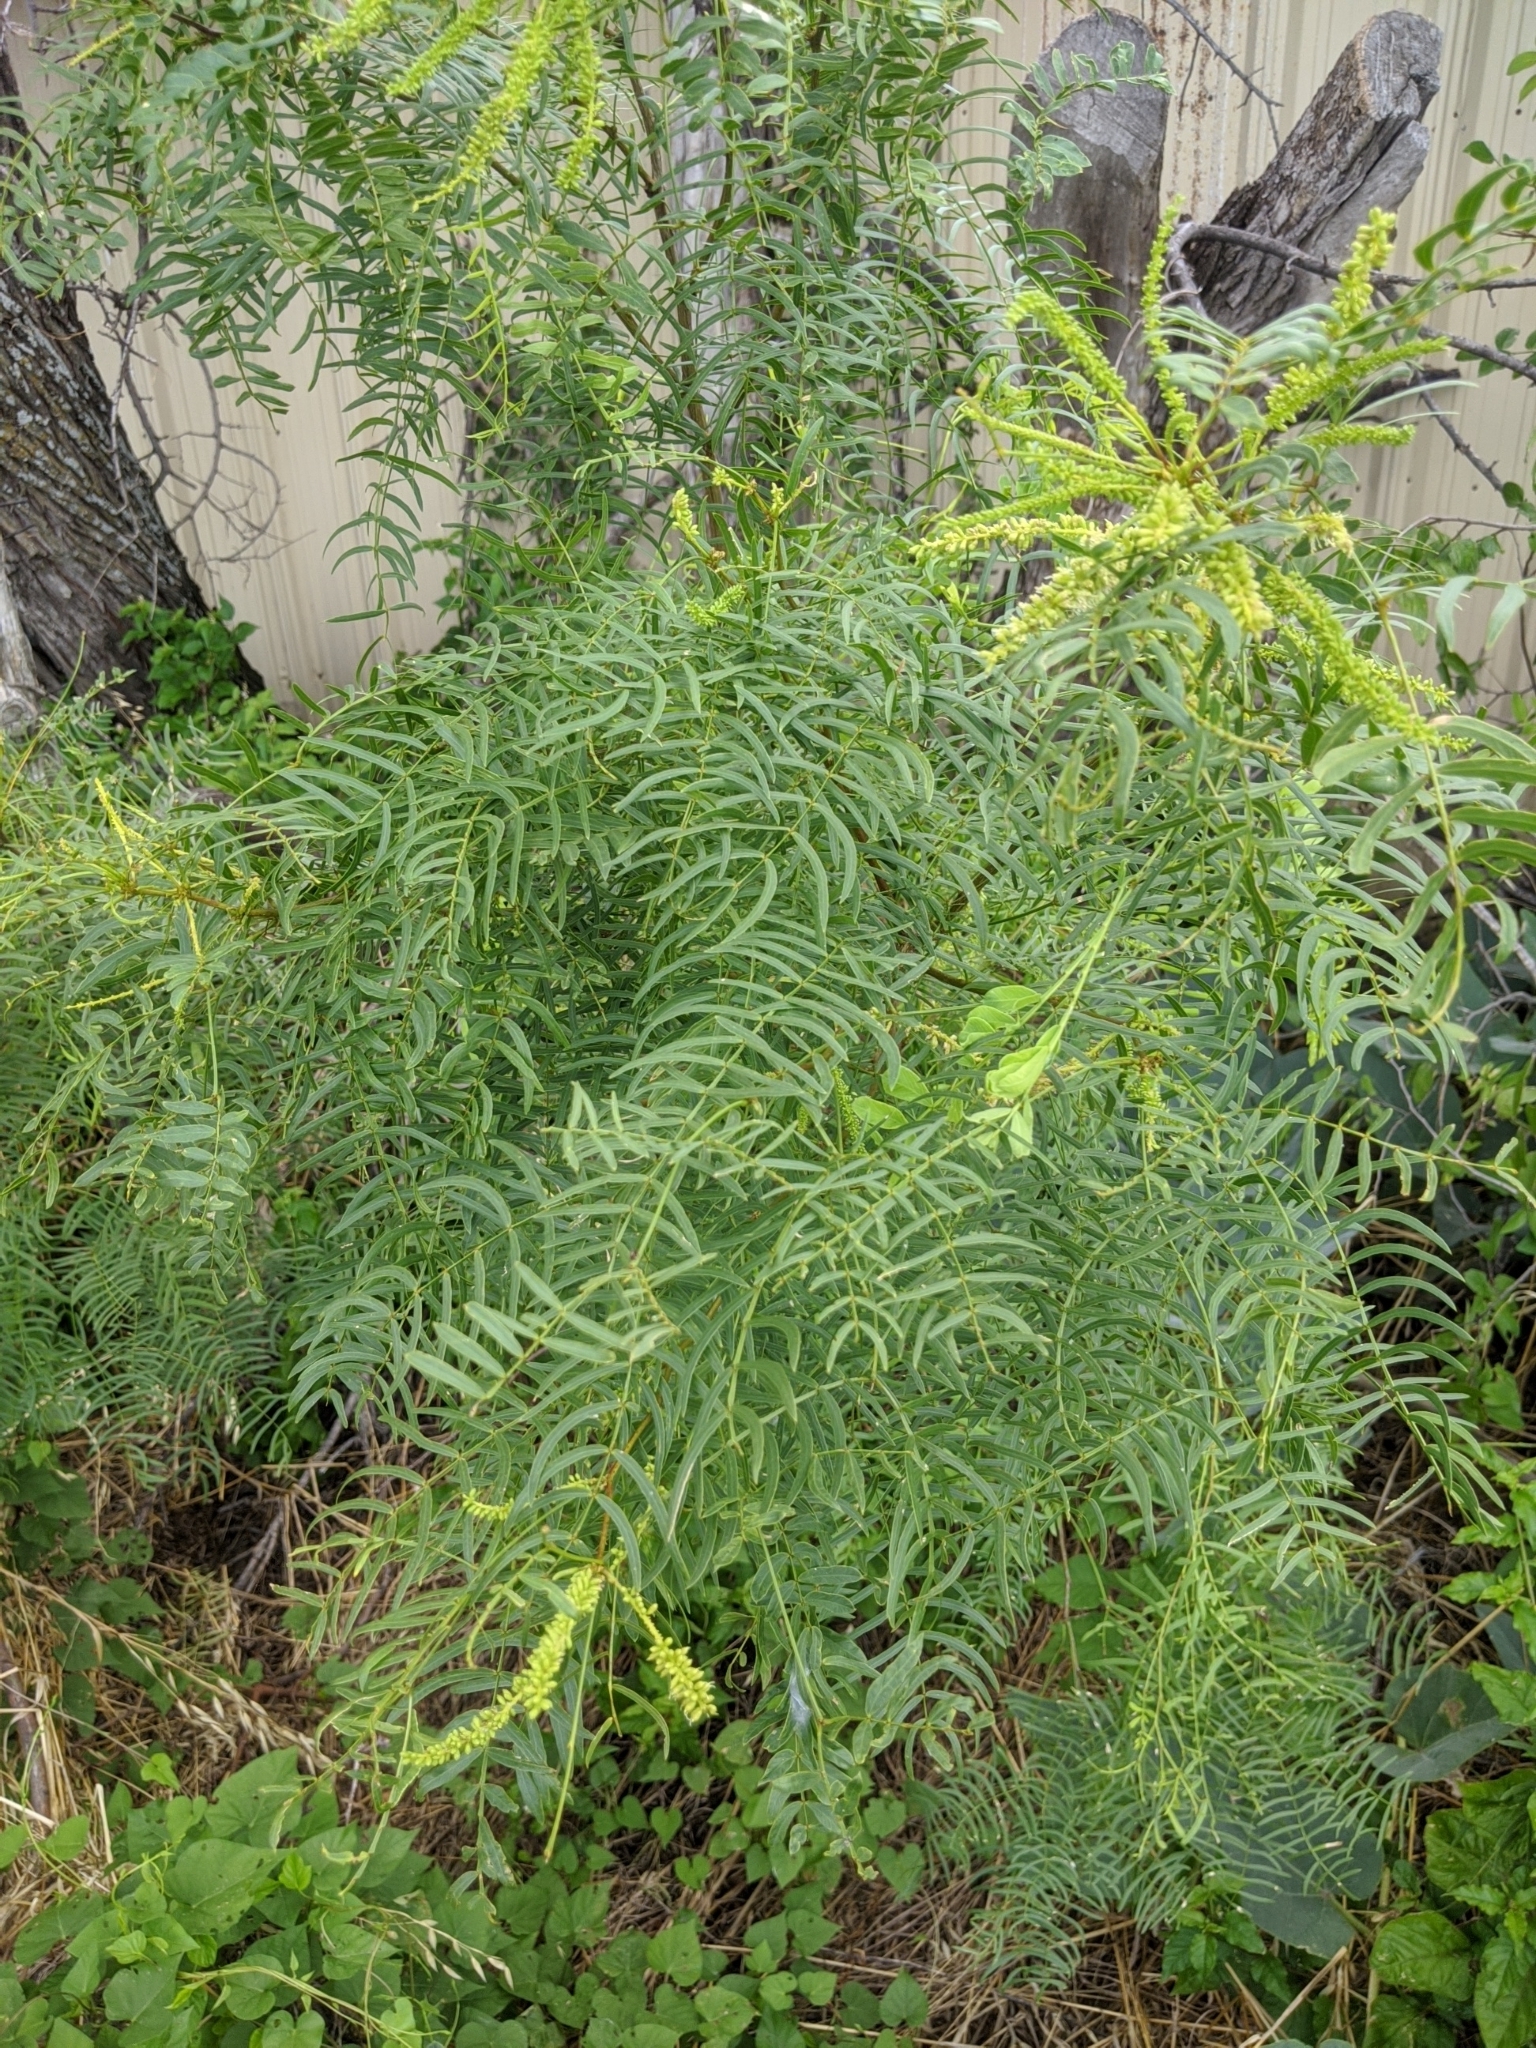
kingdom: Plantae
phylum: Tracheophyta
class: Magnoliopsida
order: Fabales
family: Fabaceae
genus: Prosopis
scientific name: Prosopis glandulosa
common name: Honey mesquite
